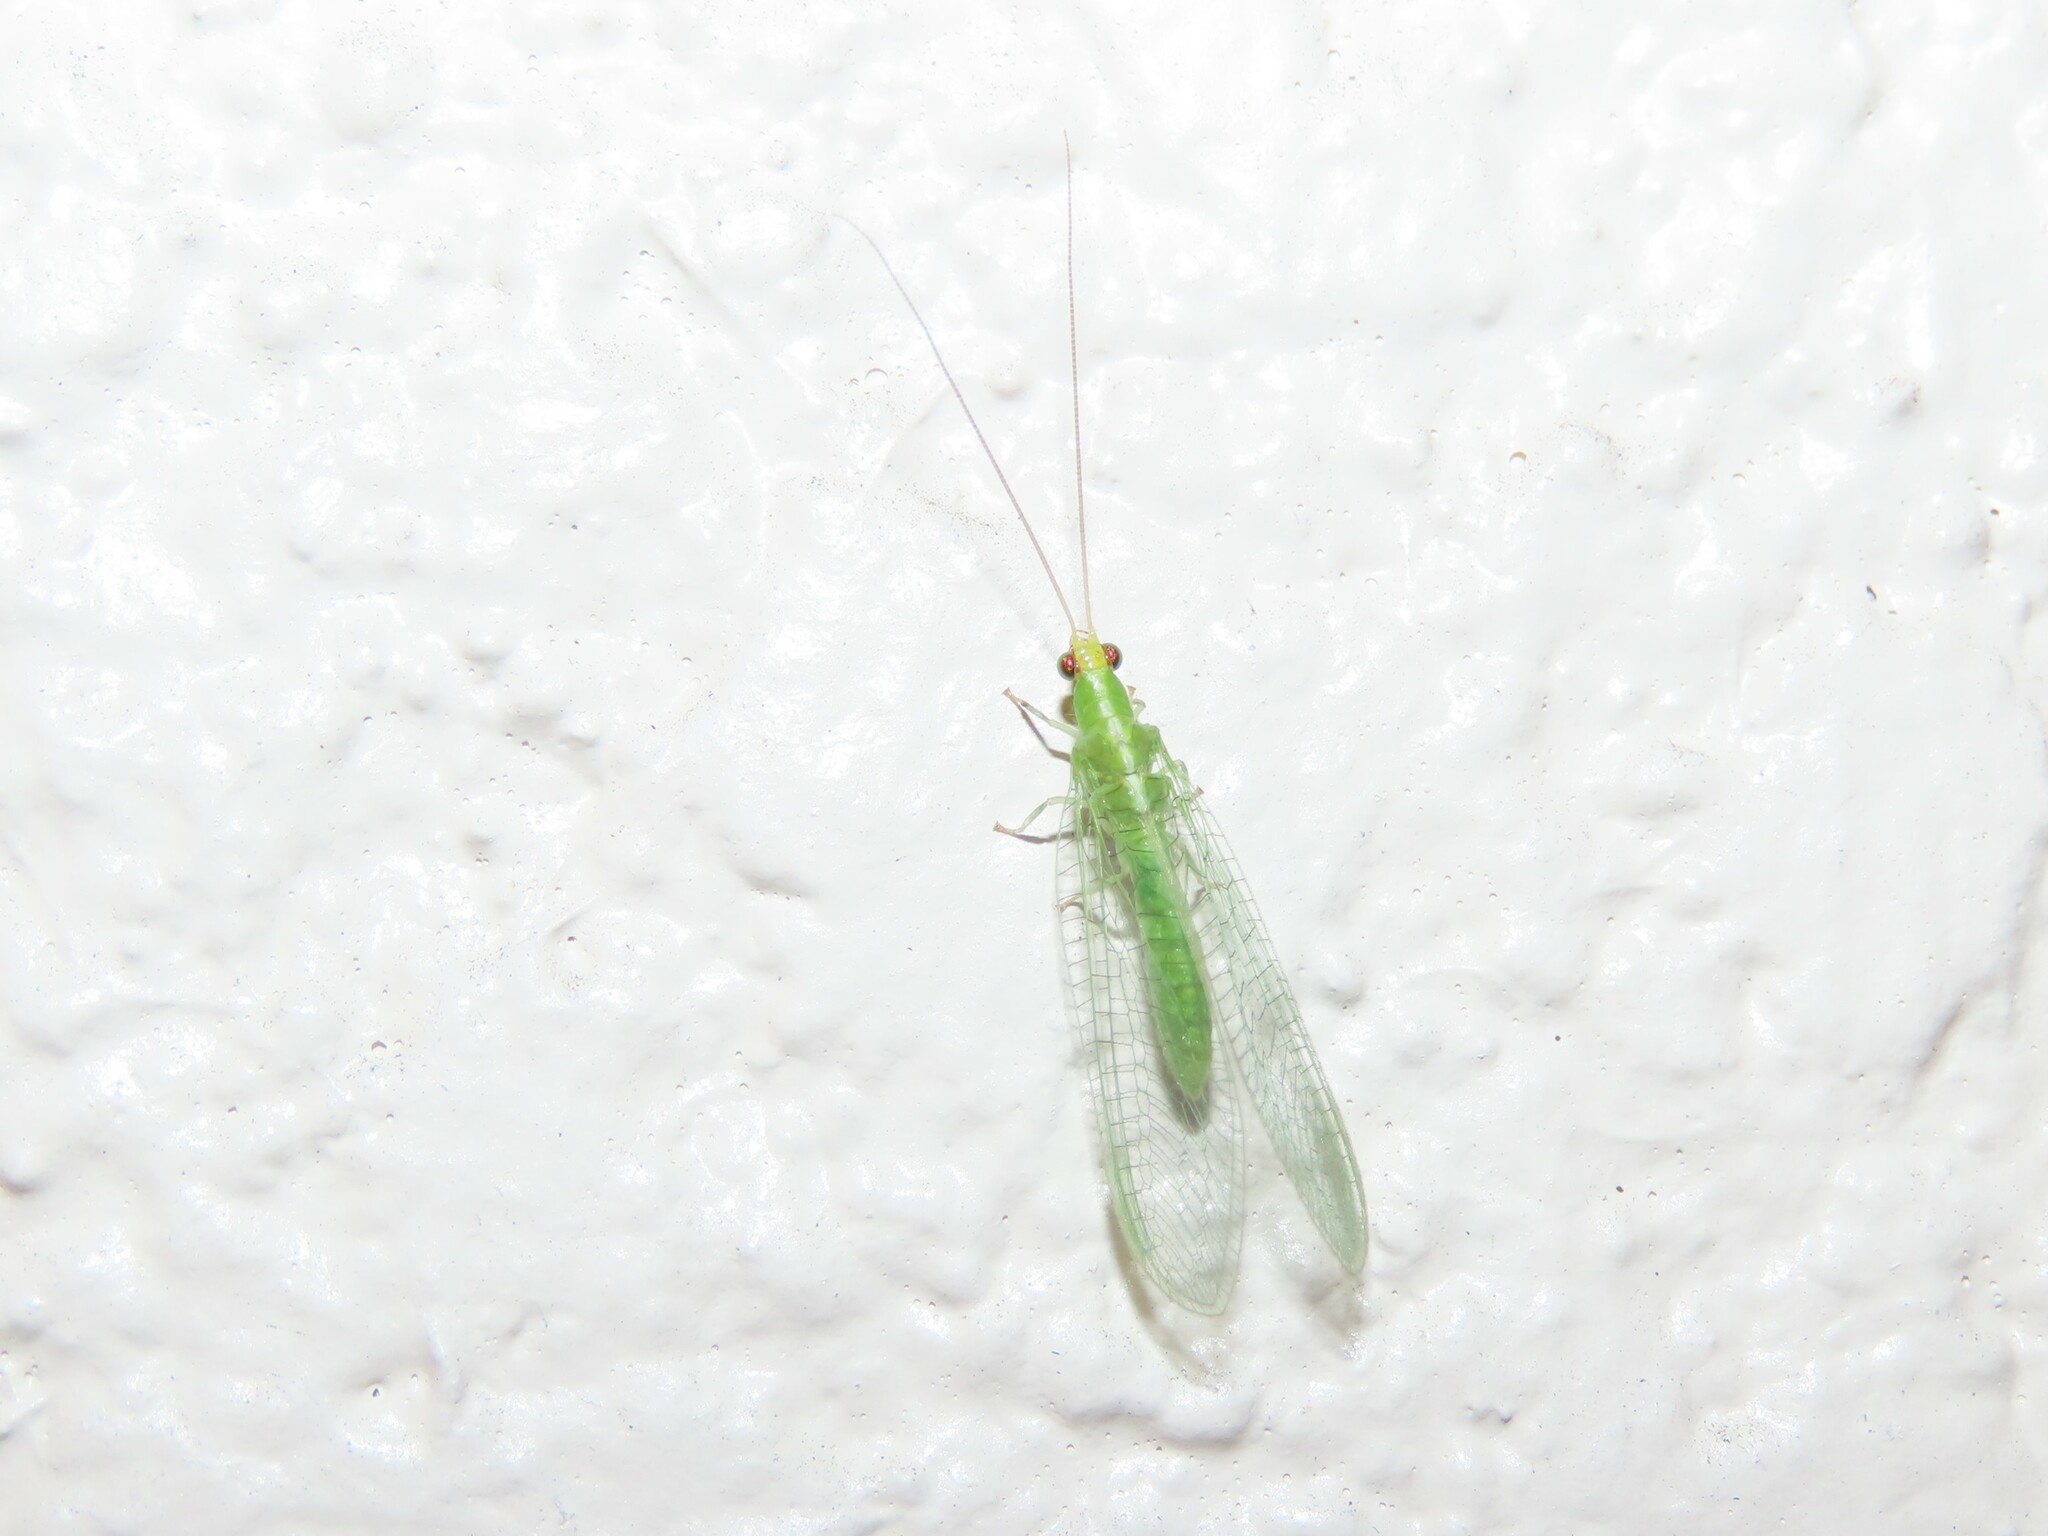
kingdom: Animalia
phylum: Arthropoda
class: Insecta
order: Neuroptera
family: Chrysopidae
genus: Chrysopodes
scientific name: Chrysopodes collaris
